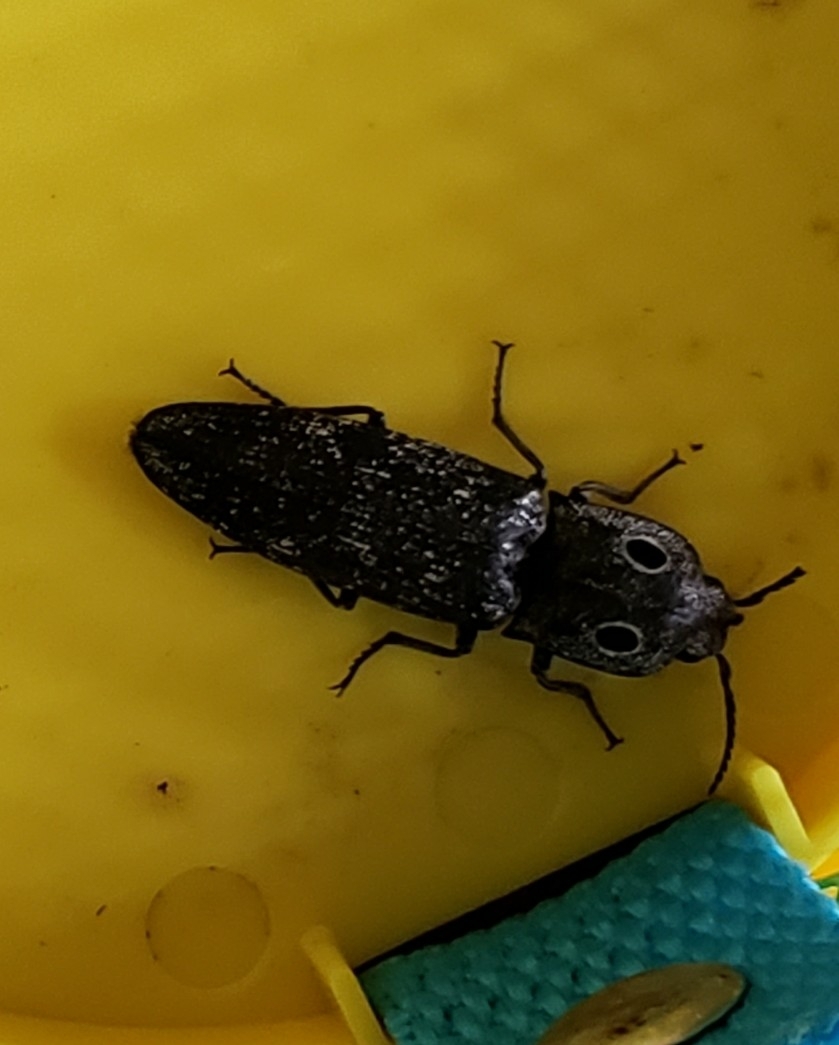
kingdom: Animalia
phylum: Arthropoda
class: Insecta
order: Coleoptera
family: Elateridae
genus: Alaus
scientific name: Alaus melanops
